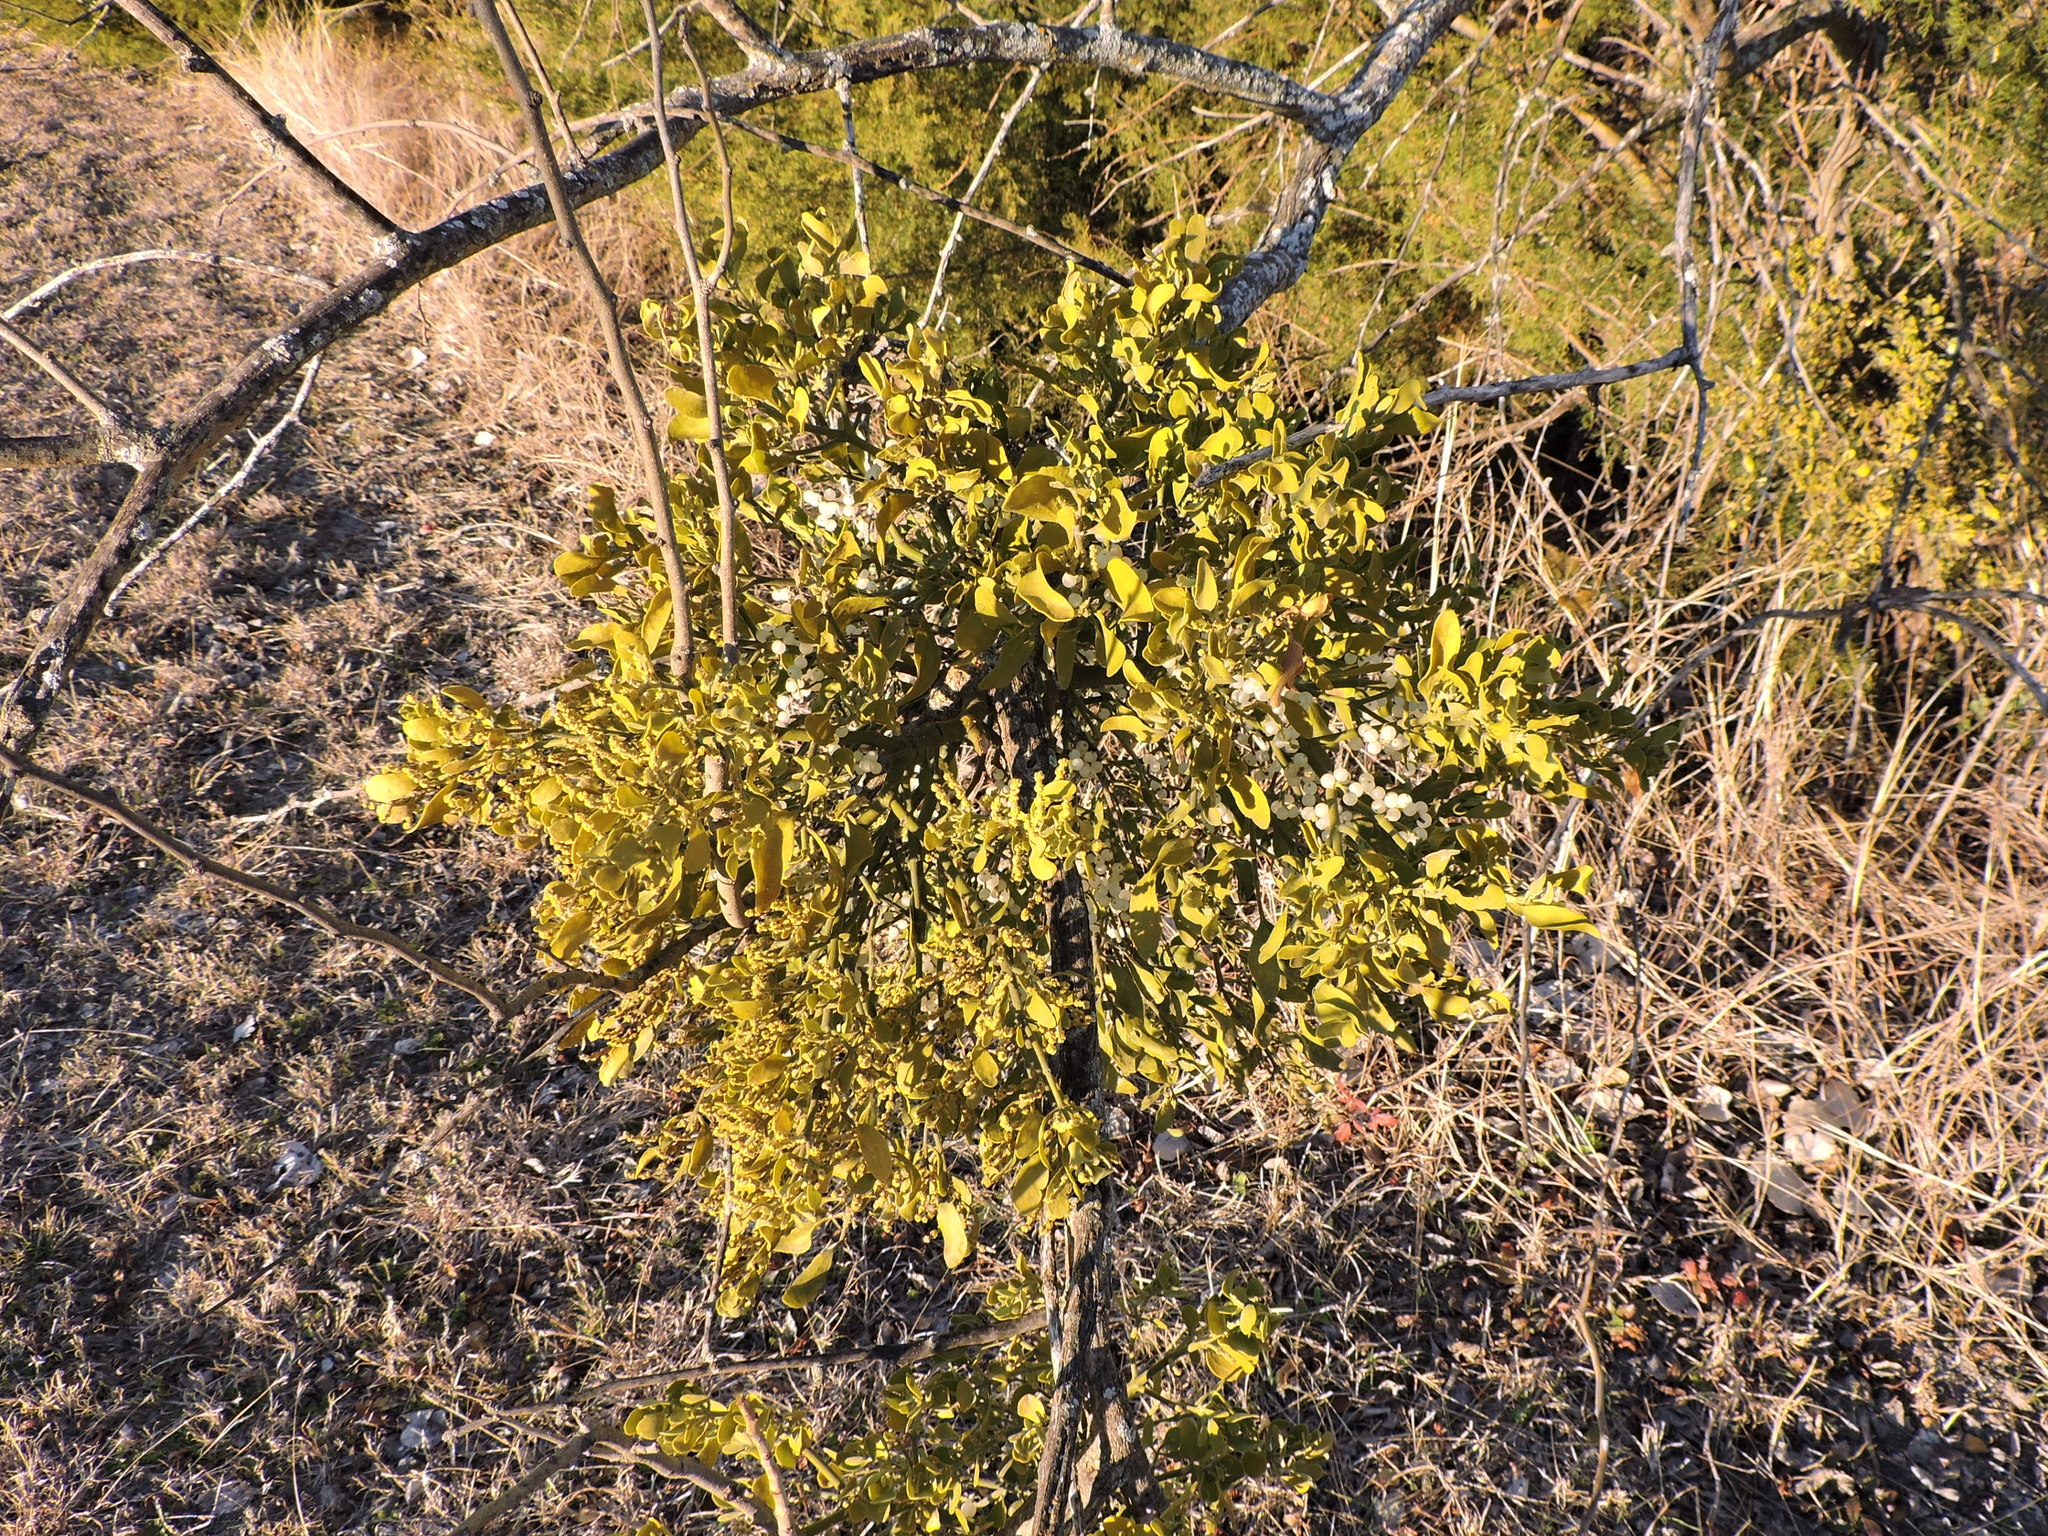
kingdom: Plantae
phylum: Tracheophyta
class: Magnoliopsida
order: Santalales
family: Viscaceae
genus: Phoradendron
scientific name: Phoradendron leucarpum
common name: Pacific mistletoe
